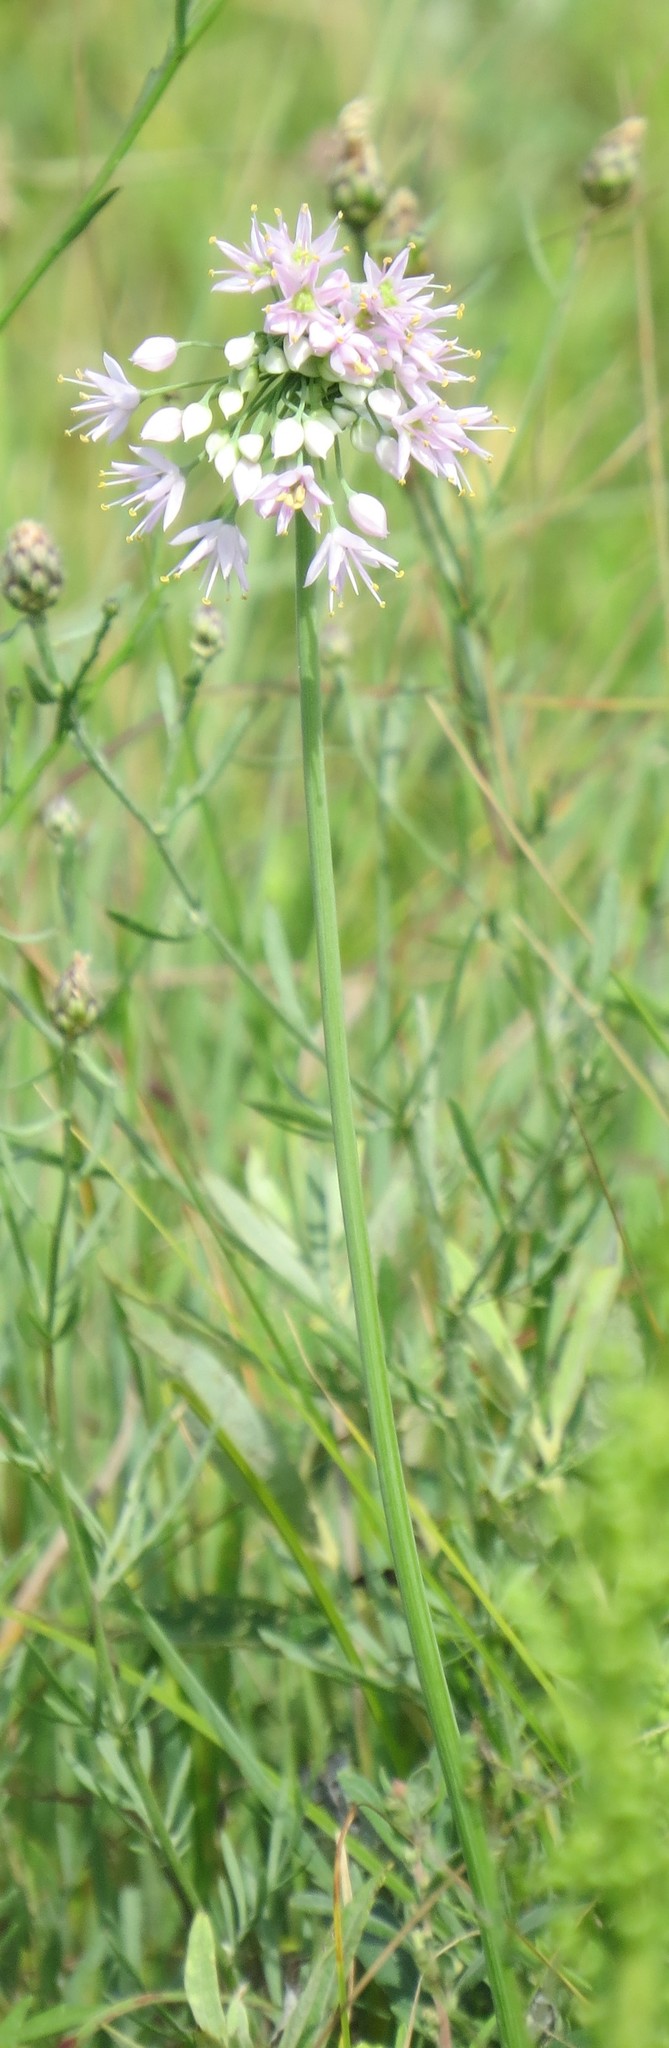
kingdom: Plantae
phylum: Tracheophyta
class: Liliopsida
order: Asparagales
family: Amaryllidaceae
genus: Allium
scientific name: Allium stellatum
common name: Autumn onion
